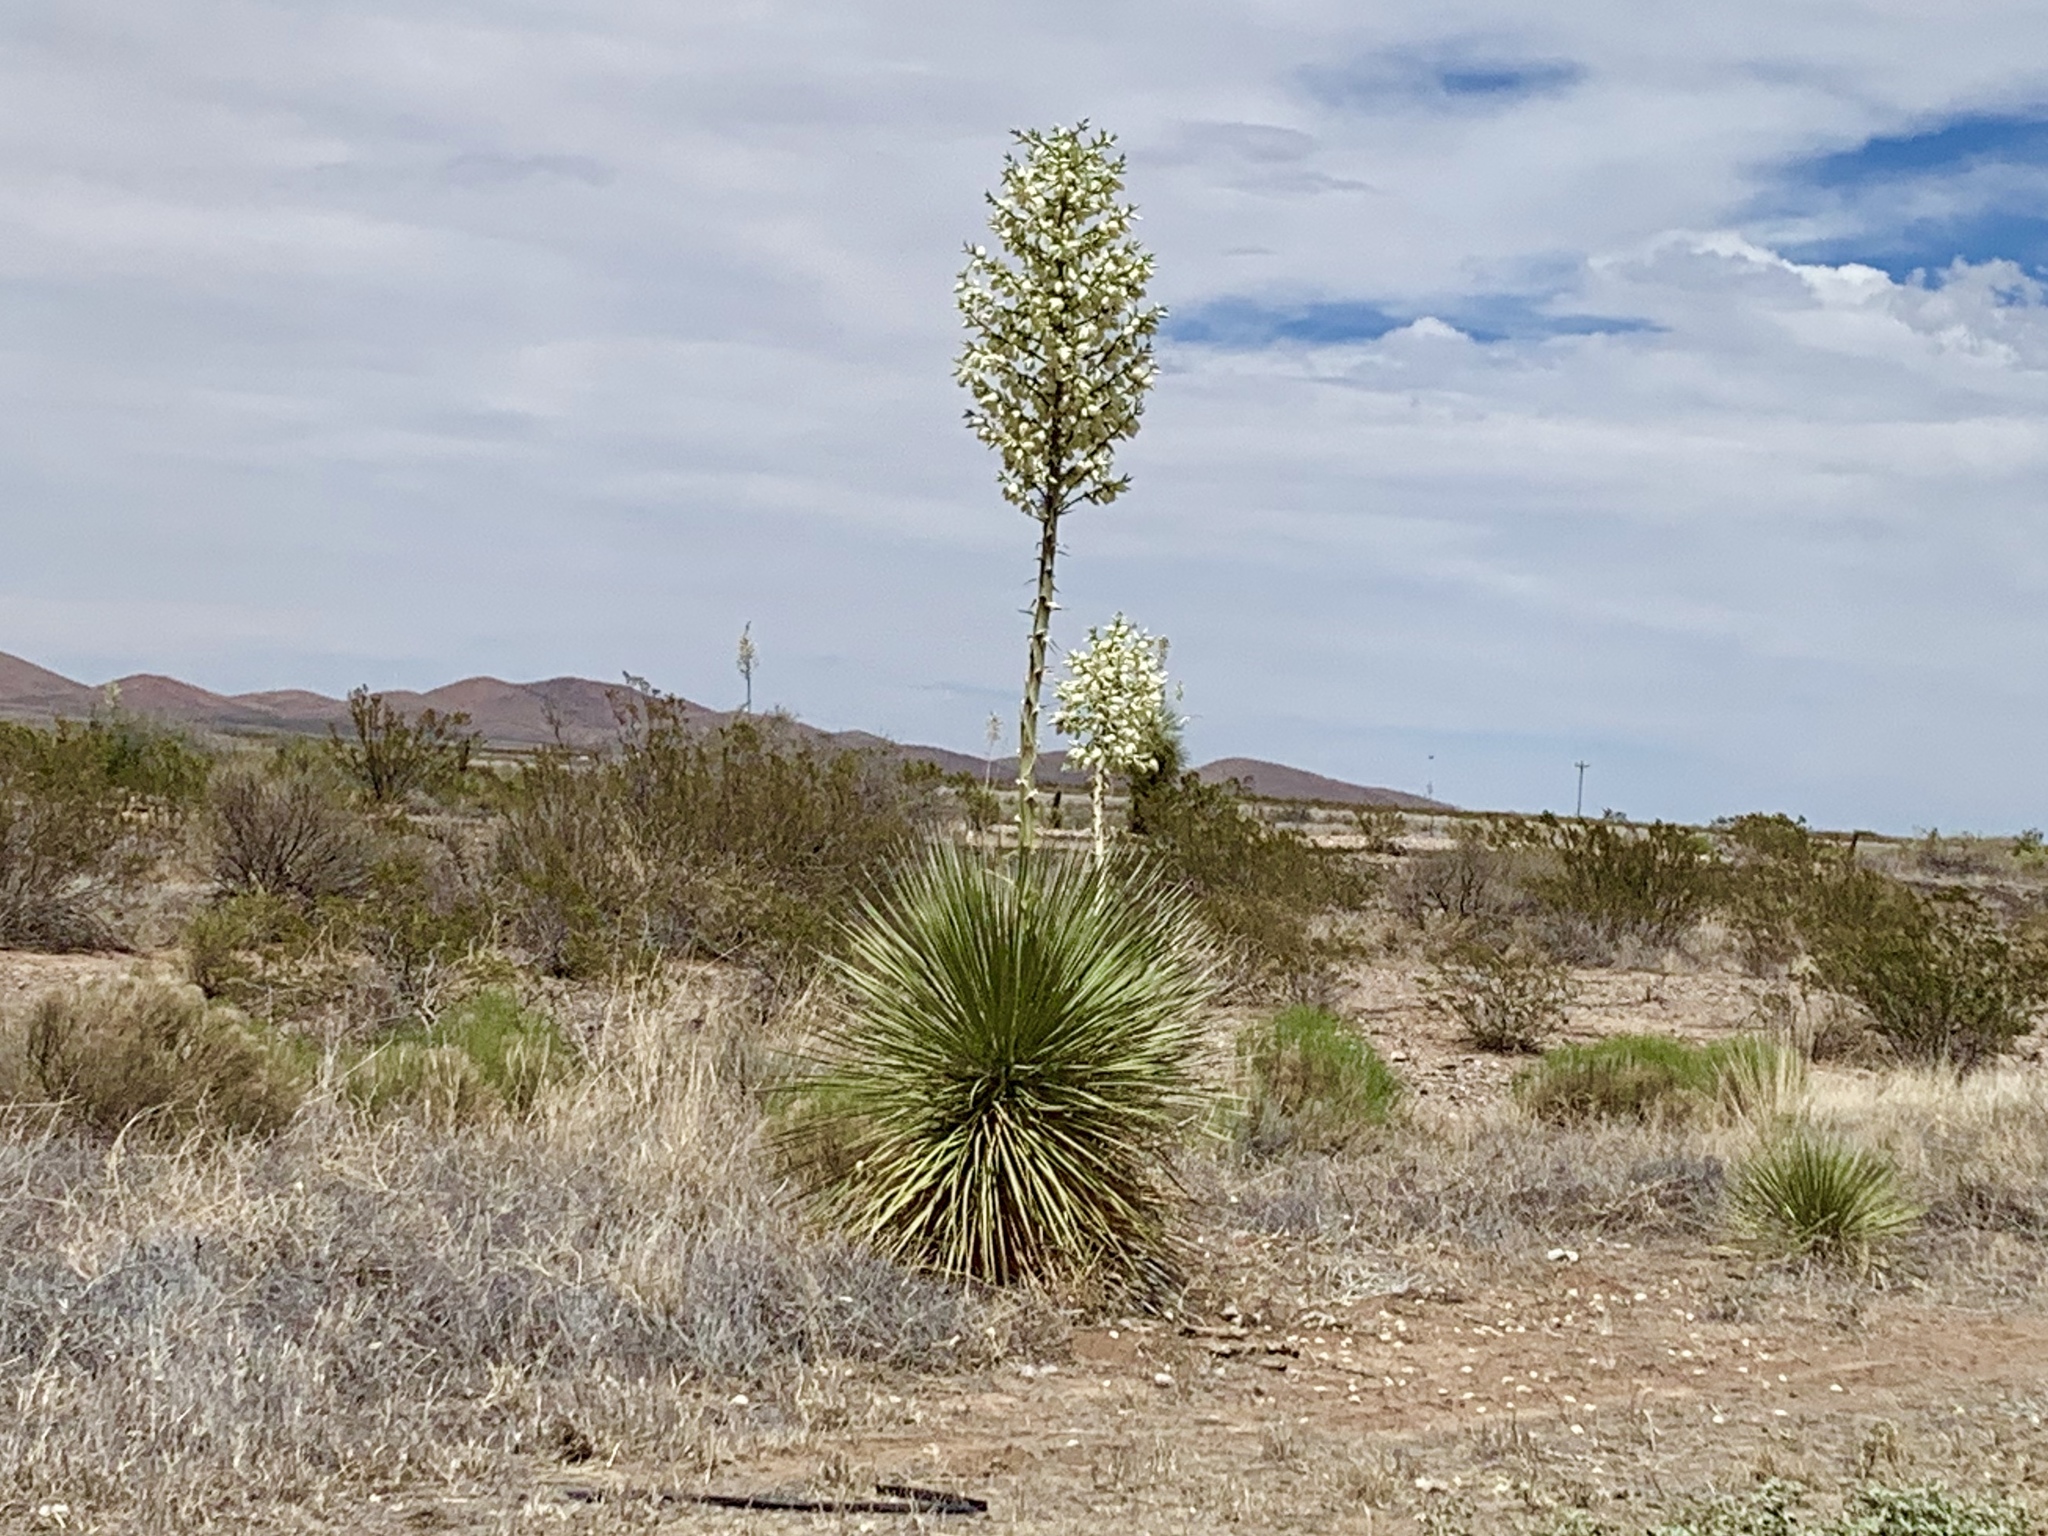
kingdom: Plantae
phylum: Tracheophyta
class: Liliopsida
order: Asparagales
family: Asparagaceae
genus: Yucca
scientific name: Yucca elata
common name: Palmella
